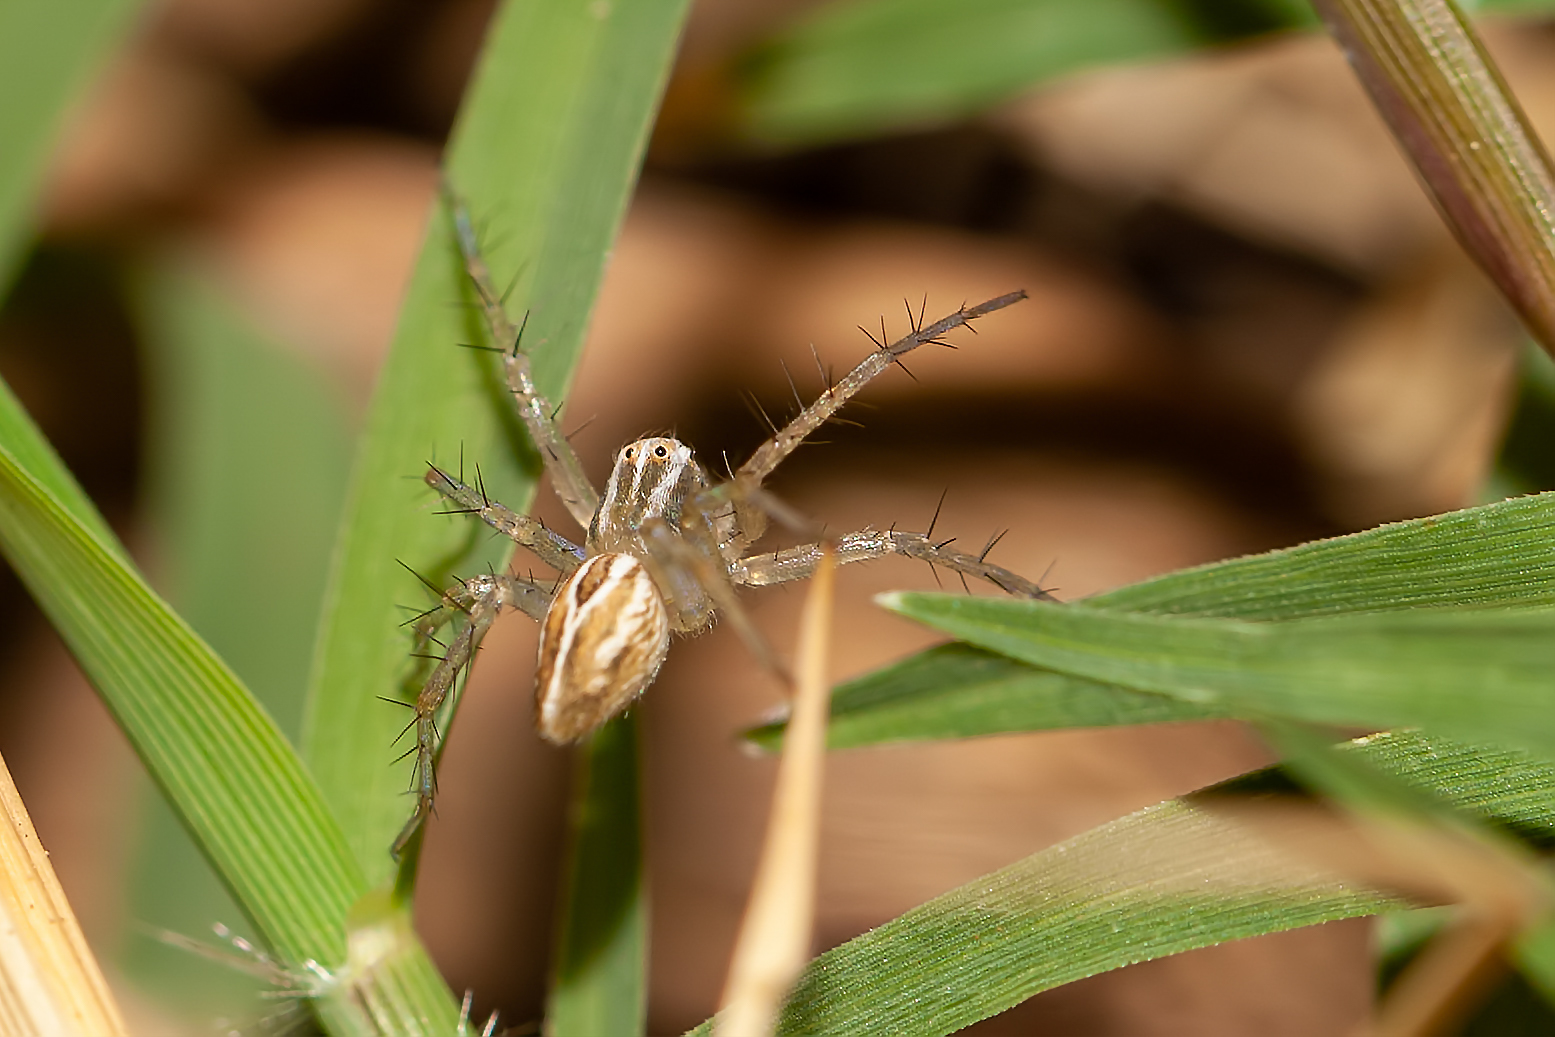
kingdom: Animalia
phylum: Arthropoda
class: Arachnida
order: Araneae
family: Oxyopidae
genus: Oxyopes
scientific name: Oxyopes salticus
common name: Lynx spiders
